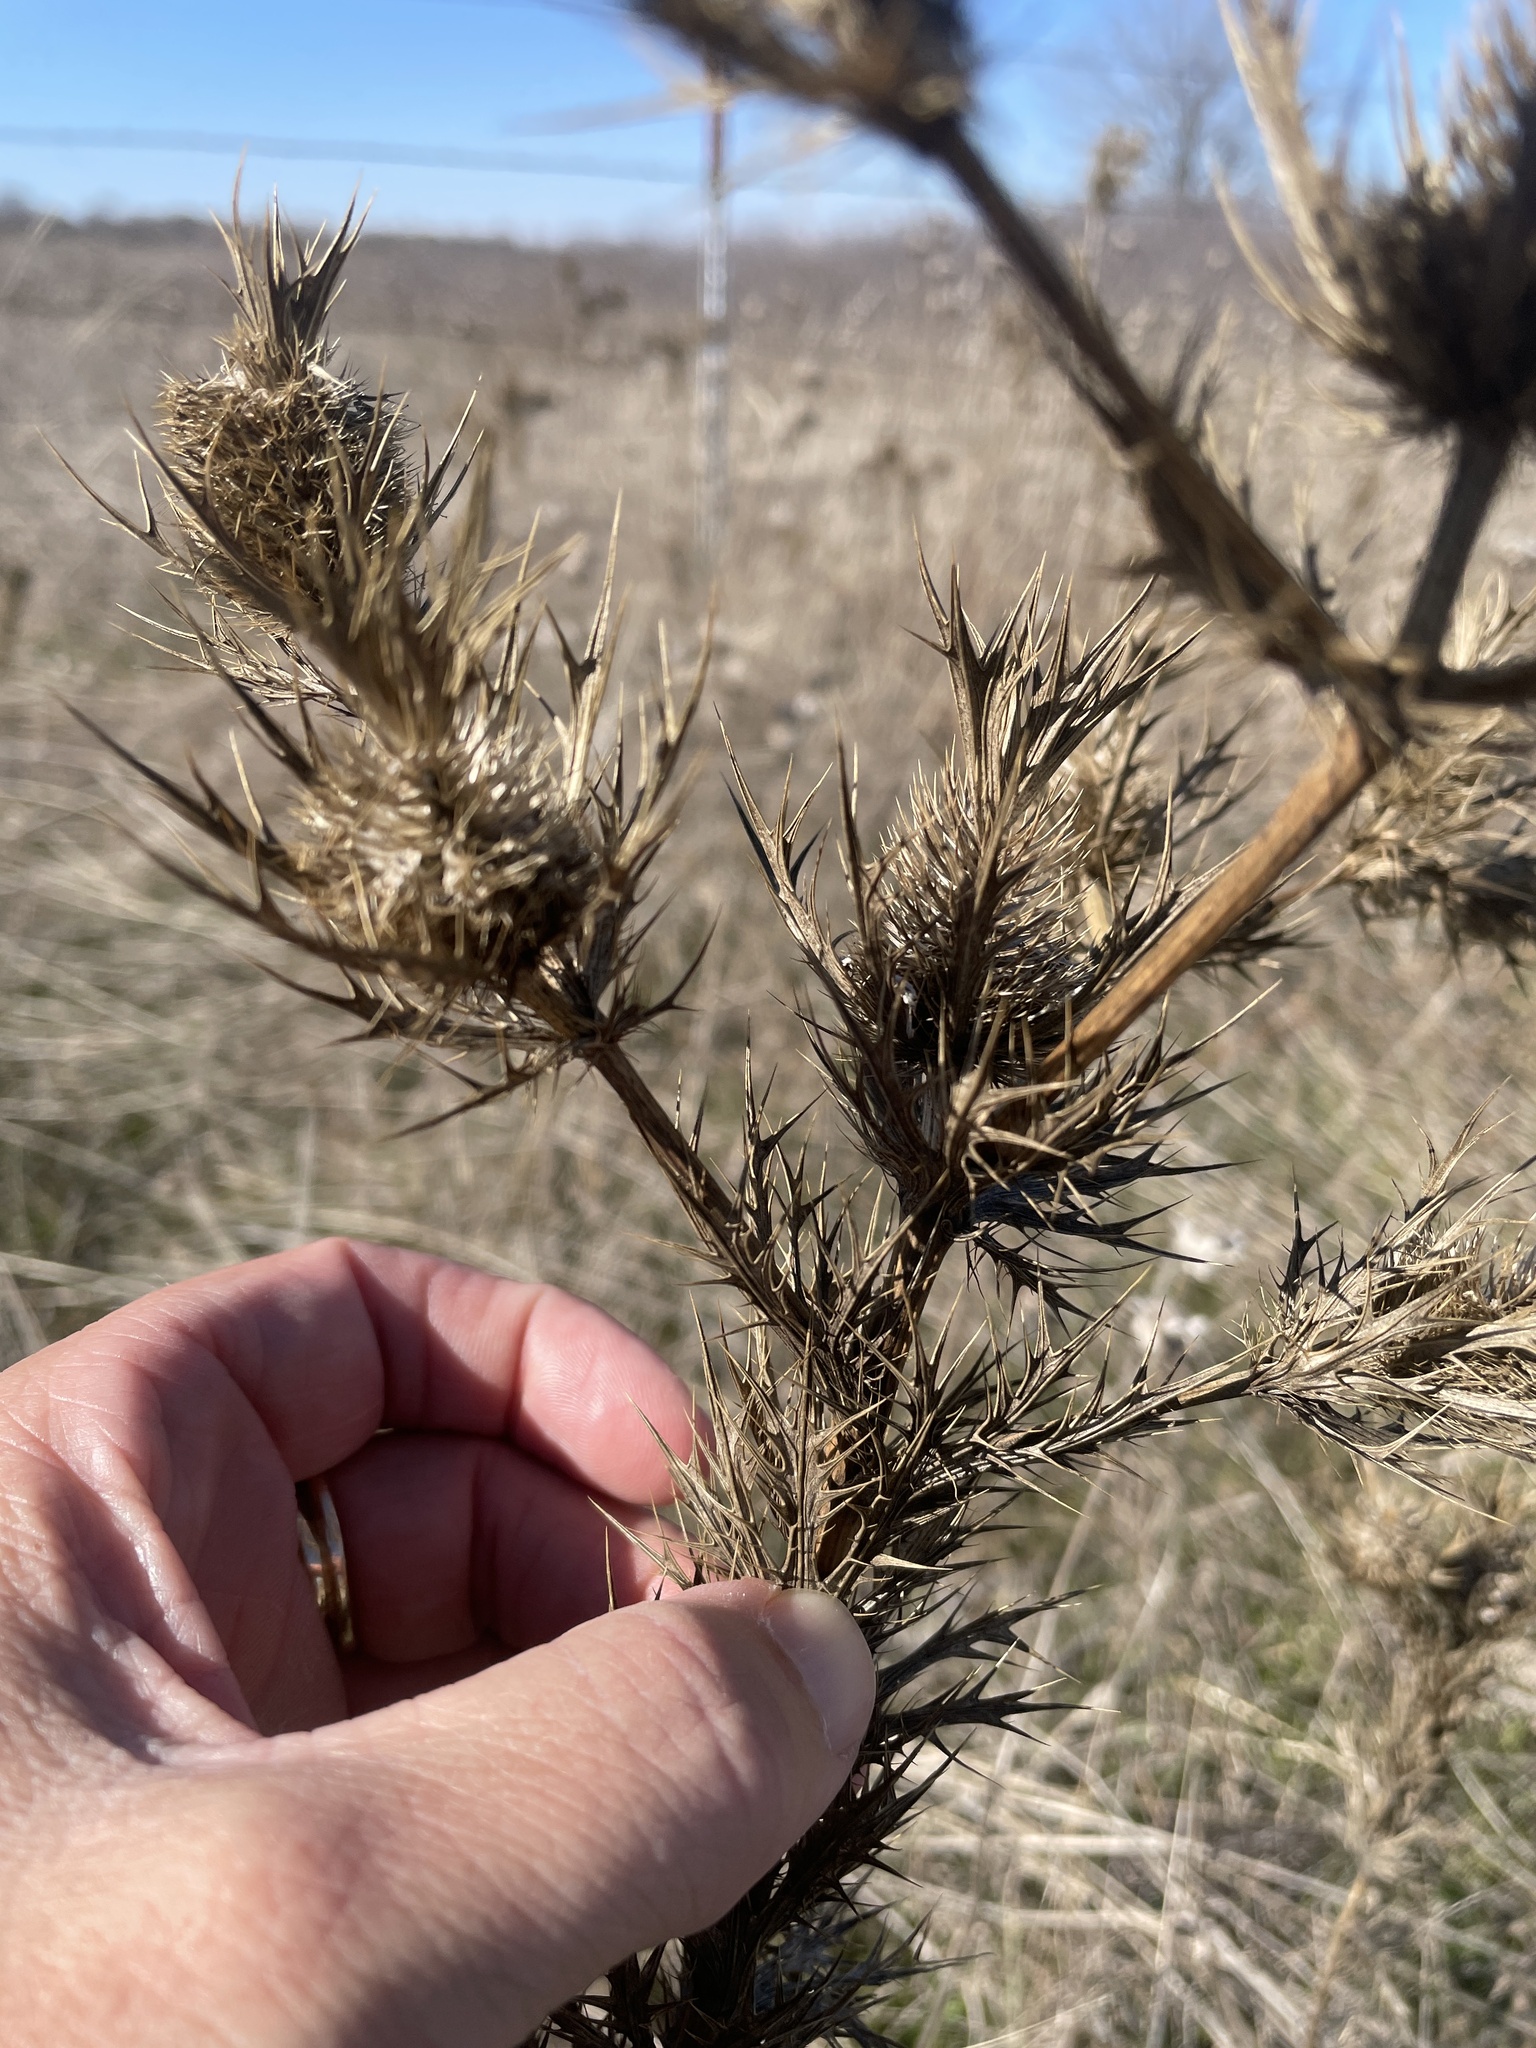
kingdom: Plantae
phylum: Tracheophyta
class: Magnoliopsida
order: Apiales
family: Apiaceae
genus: Eryngium
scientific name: Eryngium leavenworthii
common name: Leavenworth's eryngo
